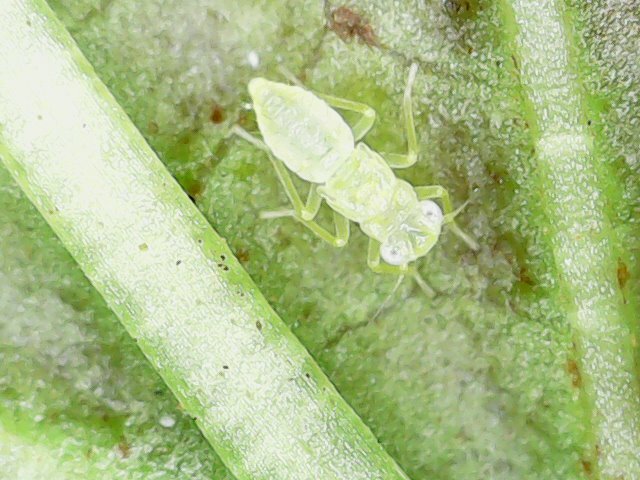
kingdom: Animalia
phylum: Arthropoda
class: Insecta
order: Hemiptera
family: Cicadellidae
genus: Amrasca
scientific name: Amrasca biguttula
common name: Indian cotton jassid
